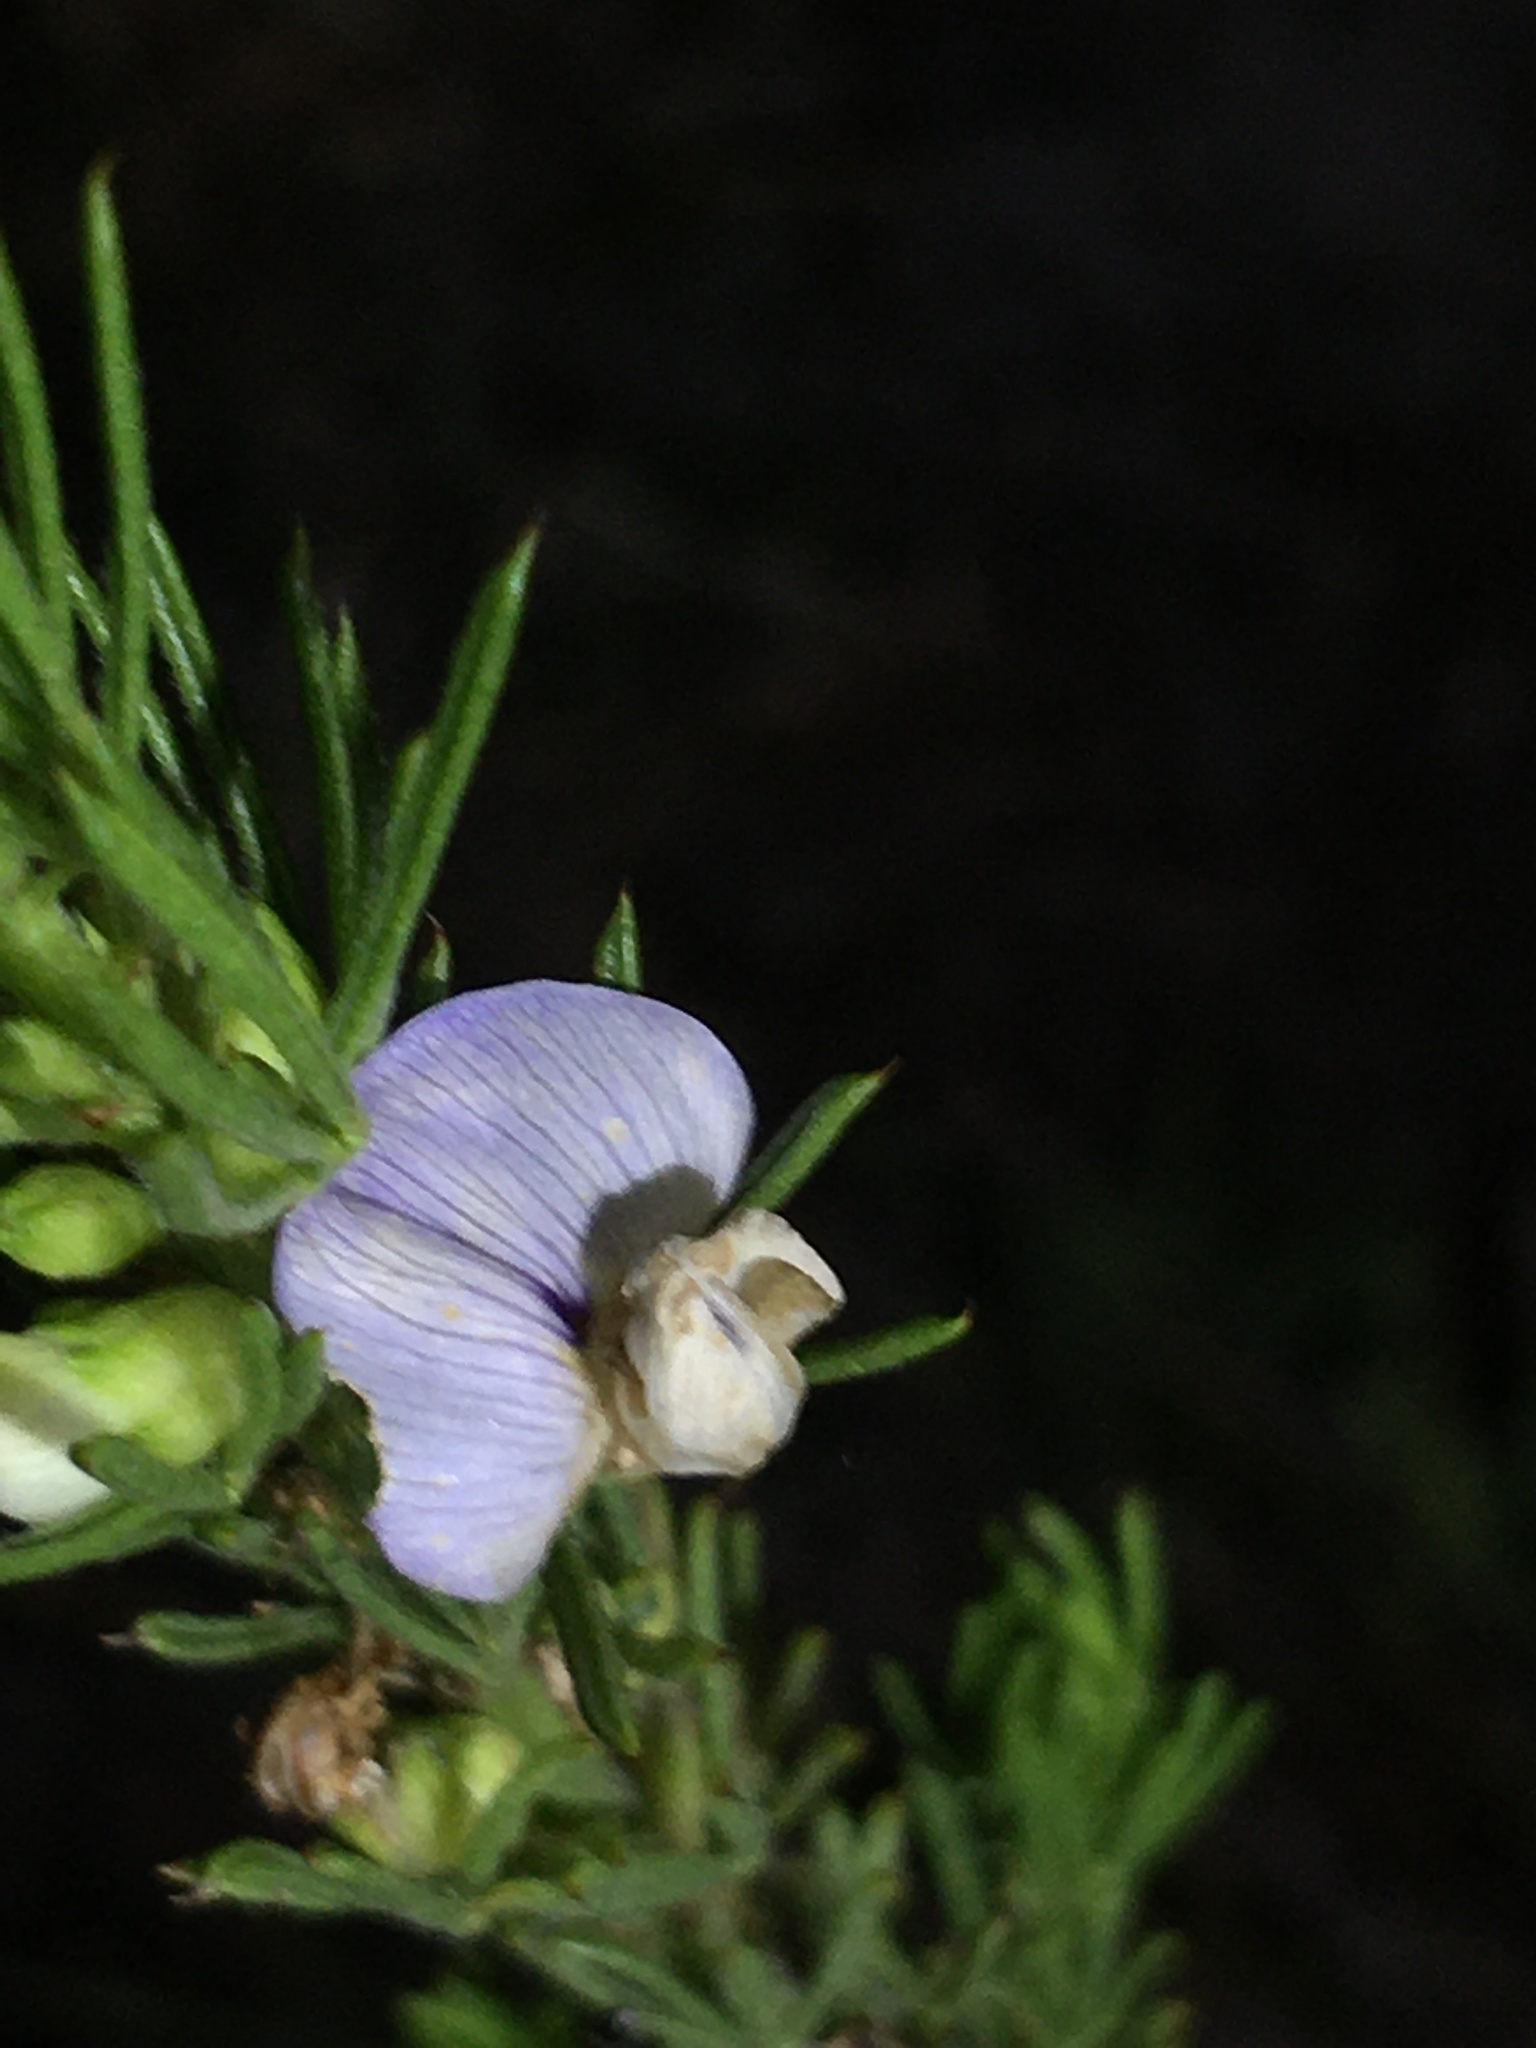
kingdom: Plantae
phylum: Tracheophyta
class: Magnoliopsida
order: Fabales
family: Fabaceae
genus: Psoralea
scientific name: Psoralea pinnata
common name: African scurfpea
